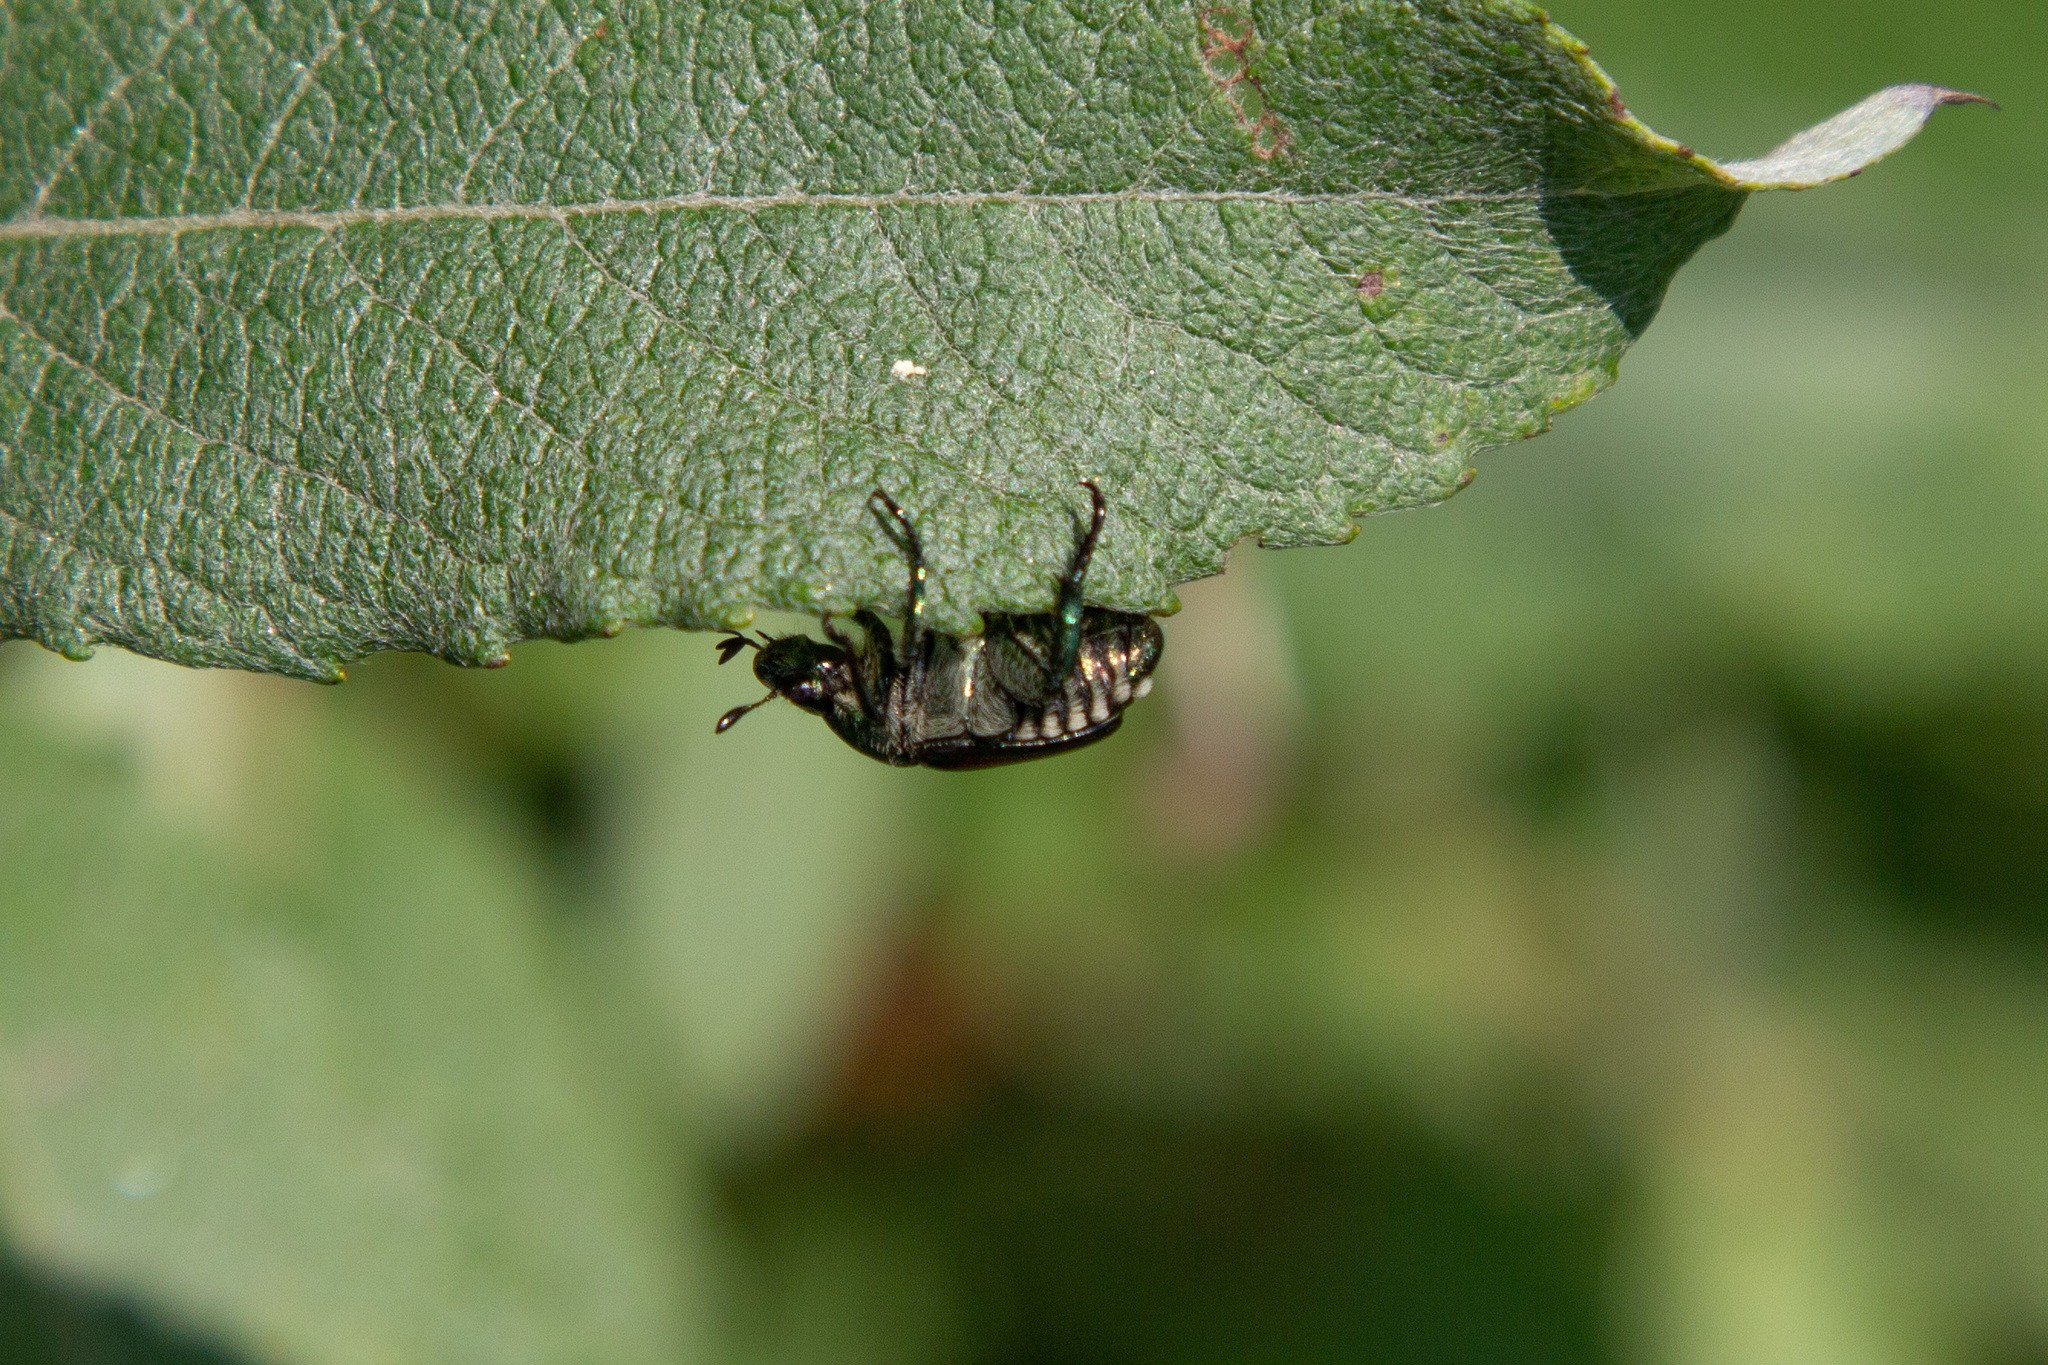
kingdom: Animalia
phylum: Arthropoda
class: Insecta
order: Coleoptera
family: Scarabaeidae
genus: Popillia
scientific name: Popillia japonica
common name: Japanese beetle
